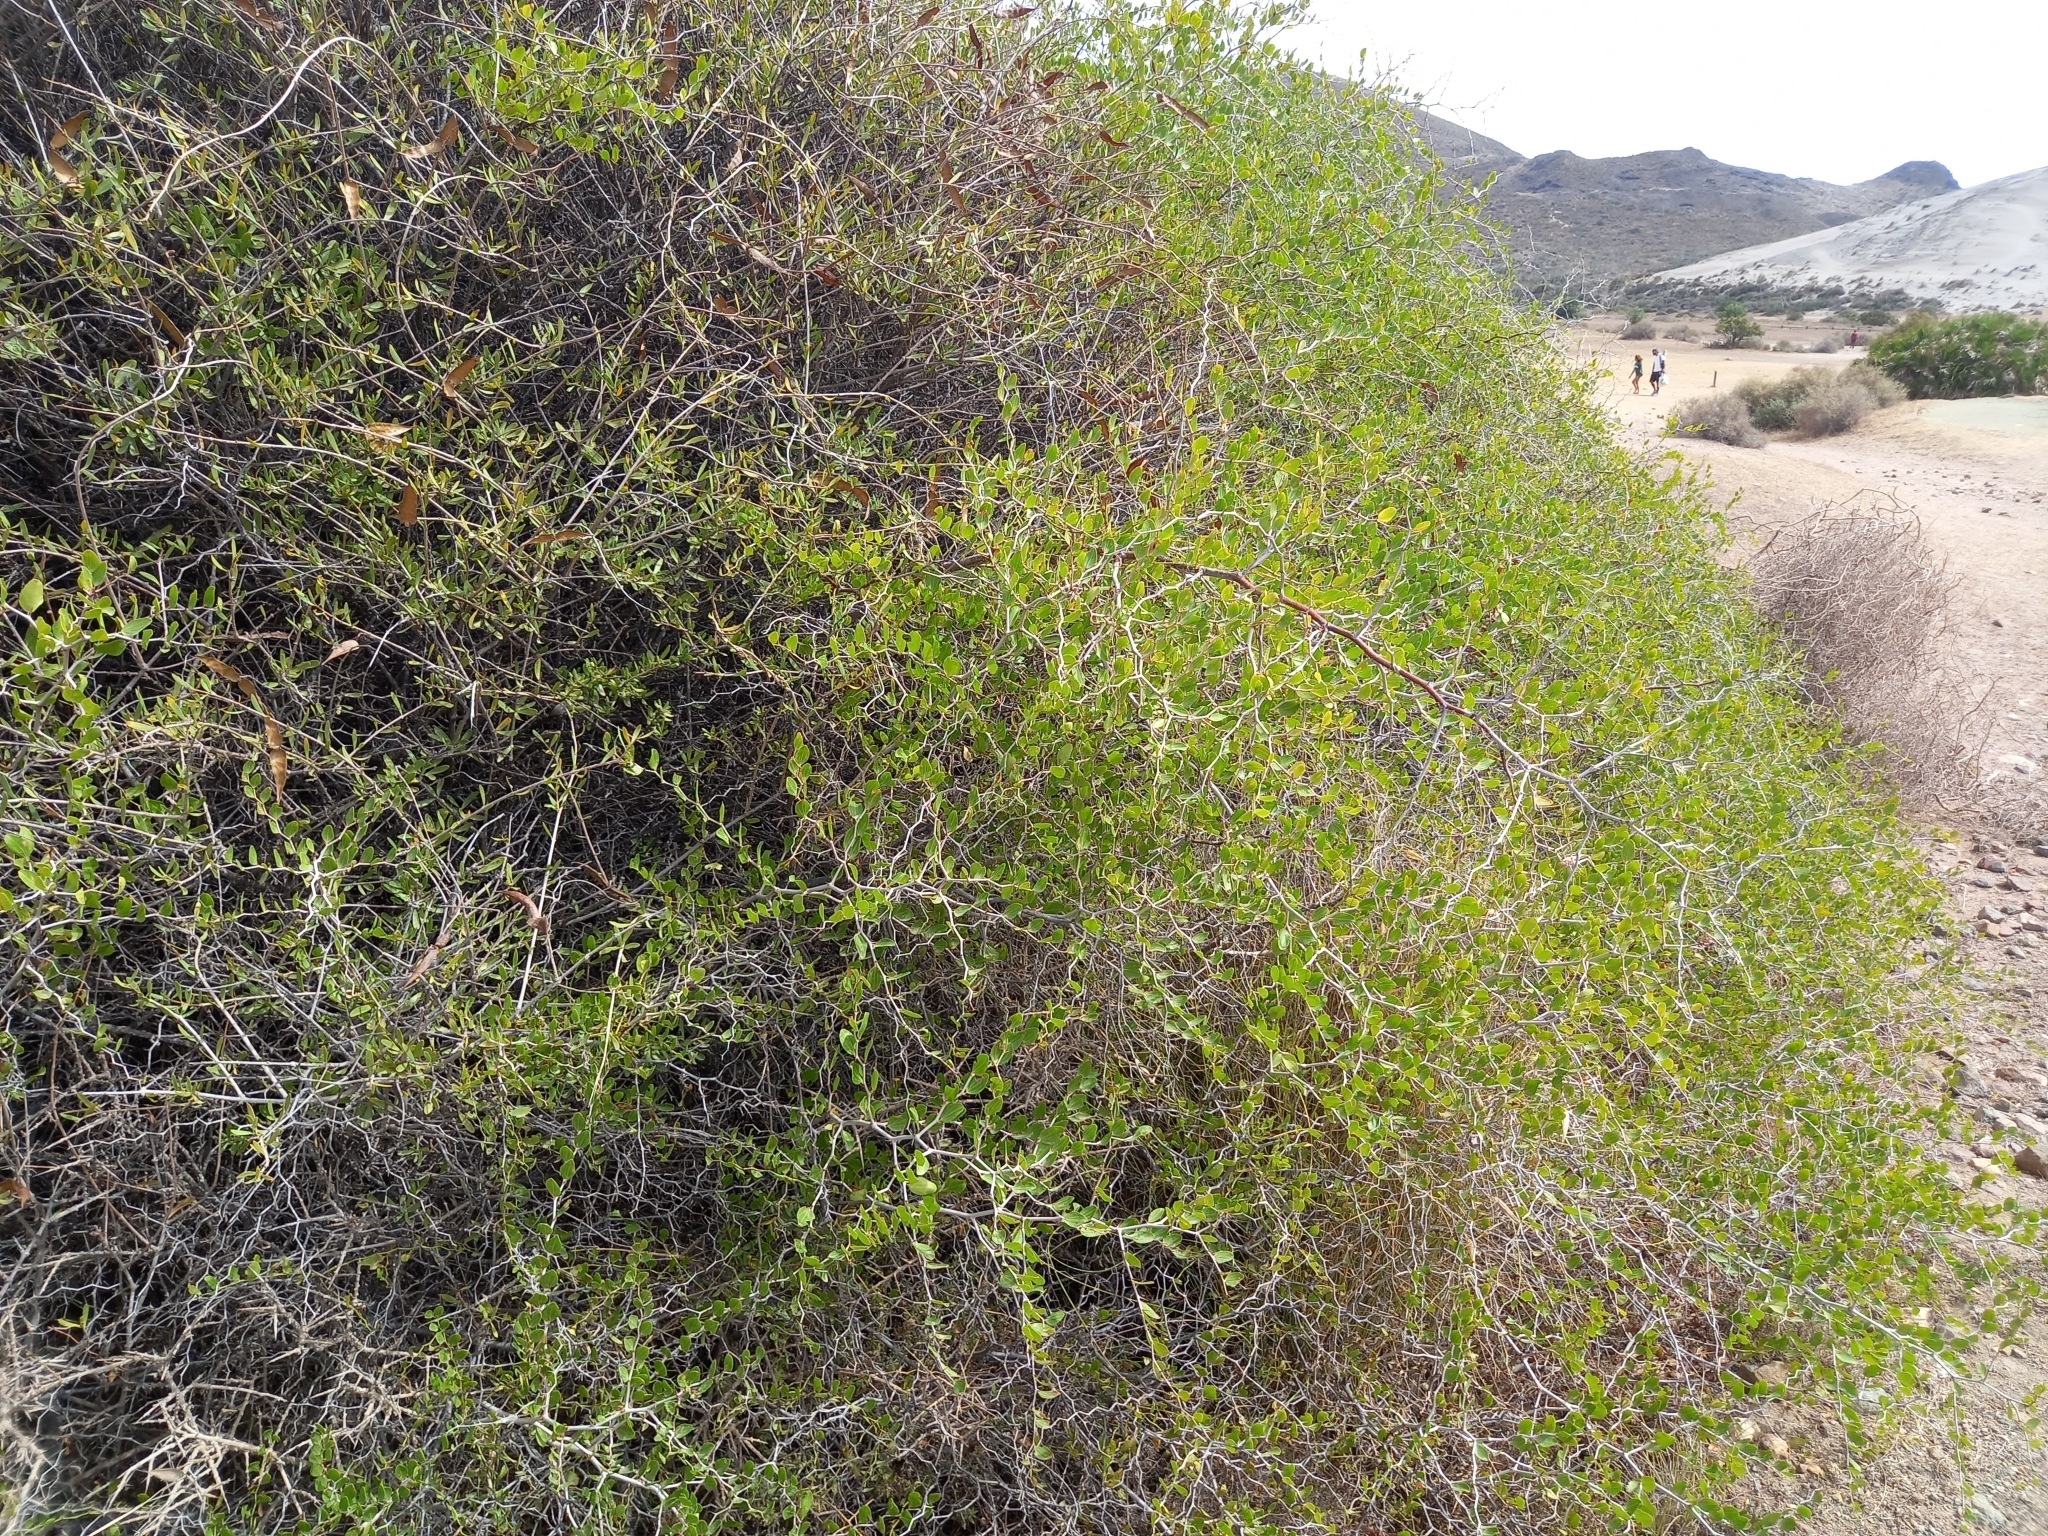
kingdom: Plantae
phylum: Tracheophyta
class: Magnoliopsida
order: Rosales
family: Rhamnaceae
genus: Ziziphus
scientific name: Ziziphus lotus
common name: Lotus
